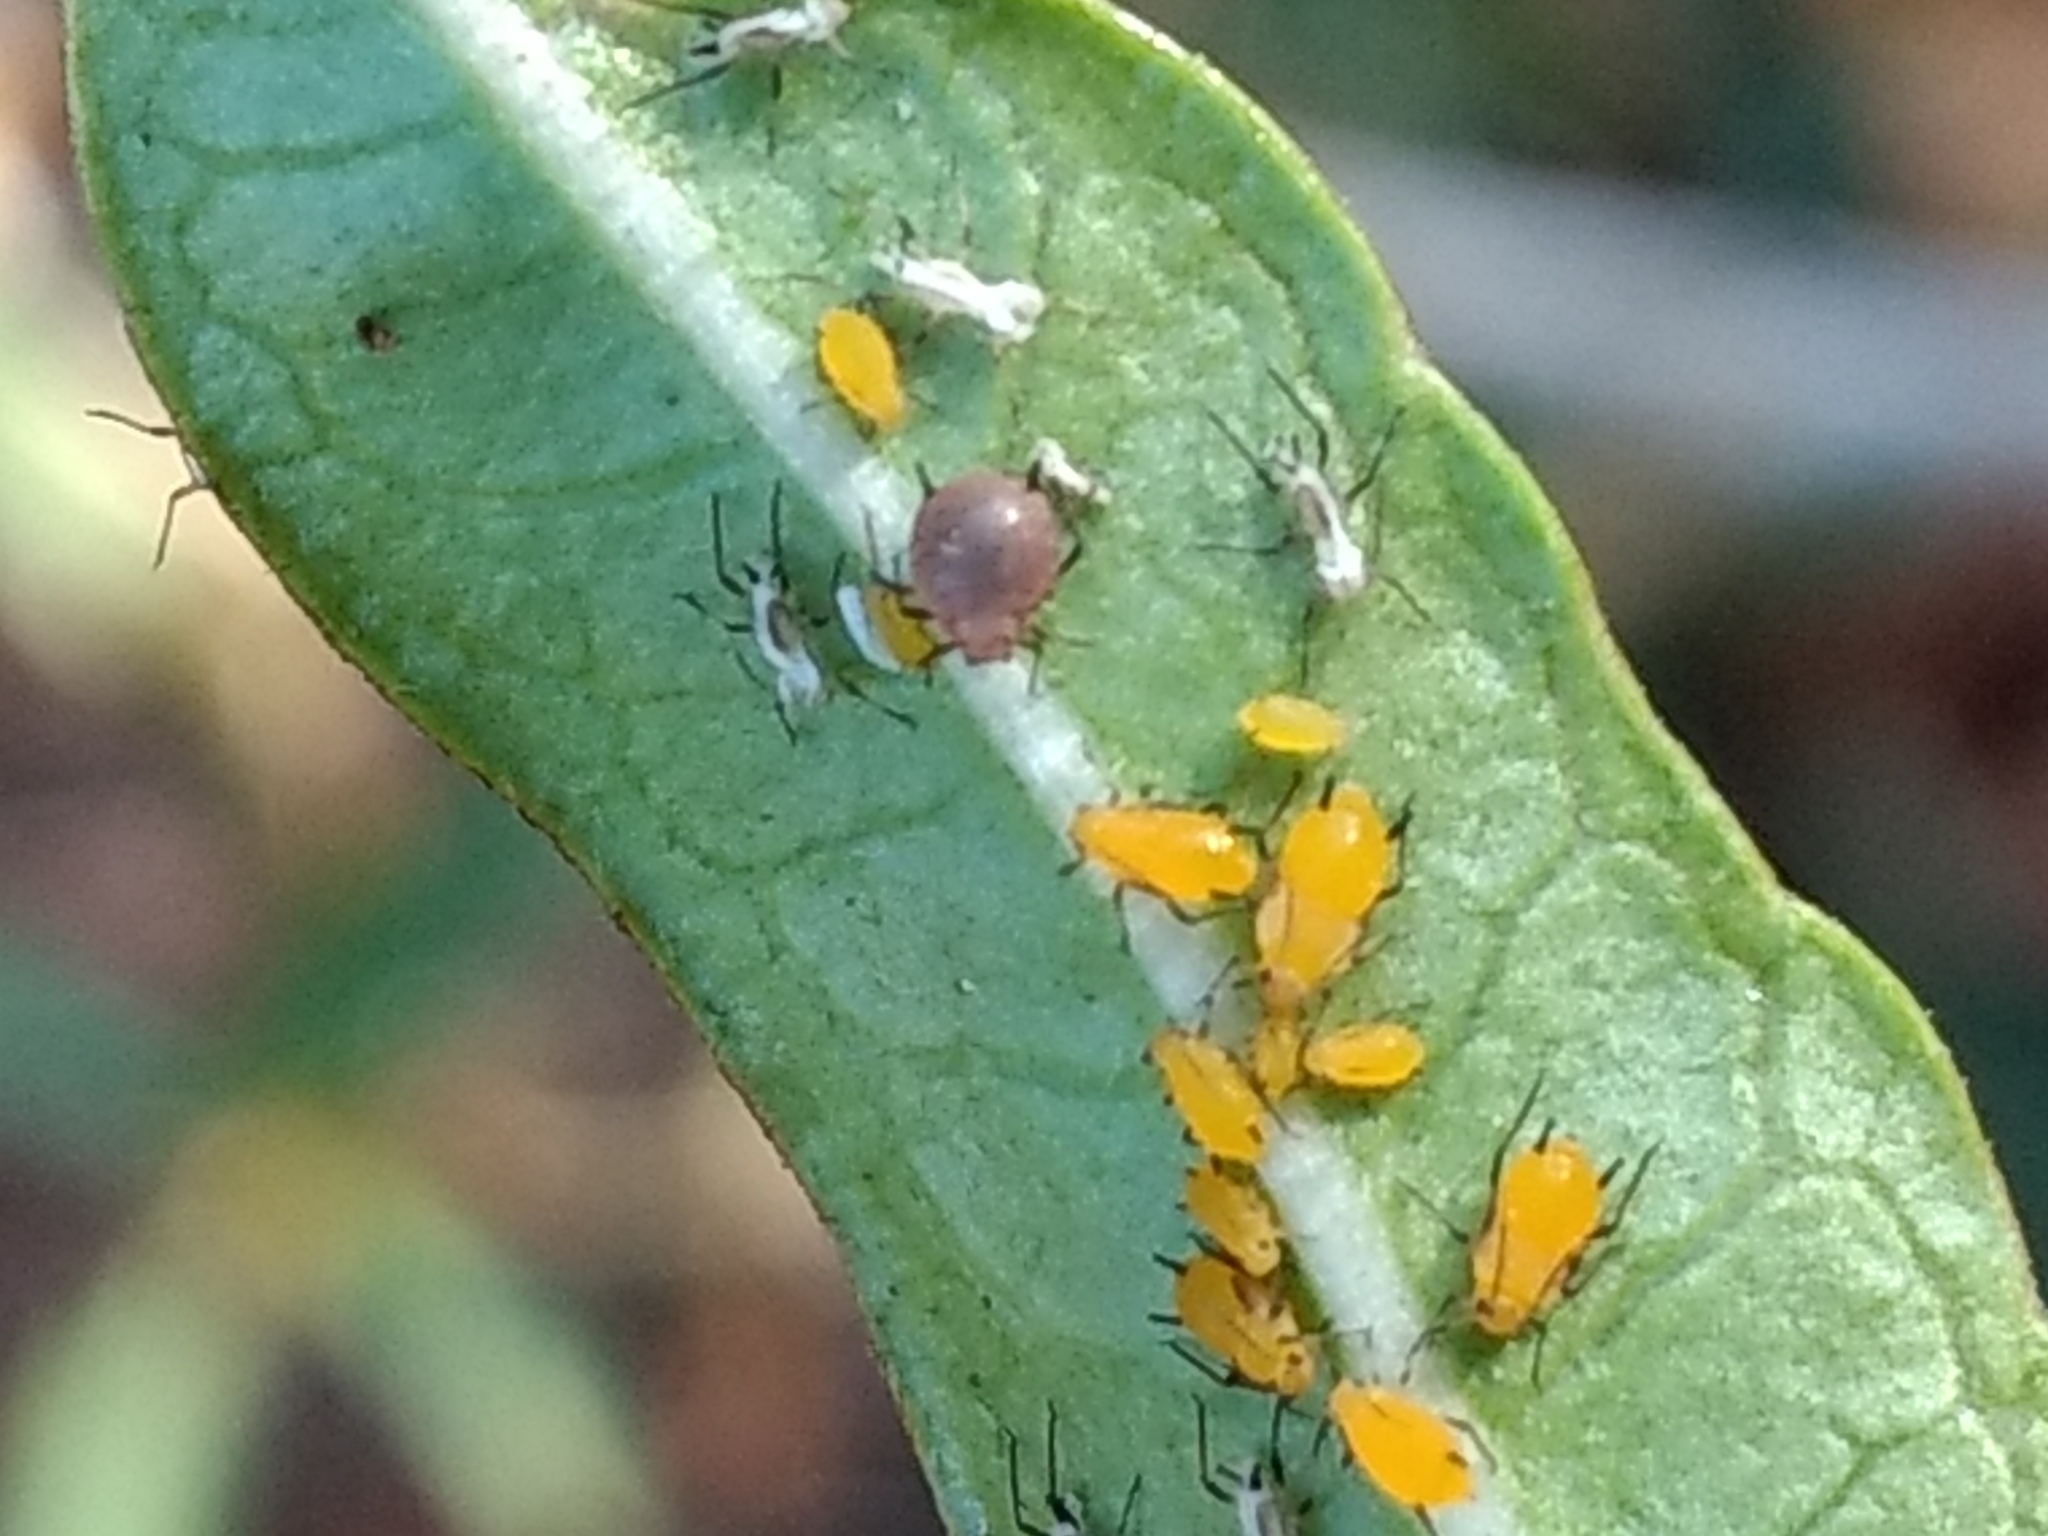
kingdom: Animalia
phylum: Arthropoda
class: Insecta
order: Hemiptera
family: Aphididae
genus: Aphis
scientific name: Aphis nerii
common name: Oleander aphid
